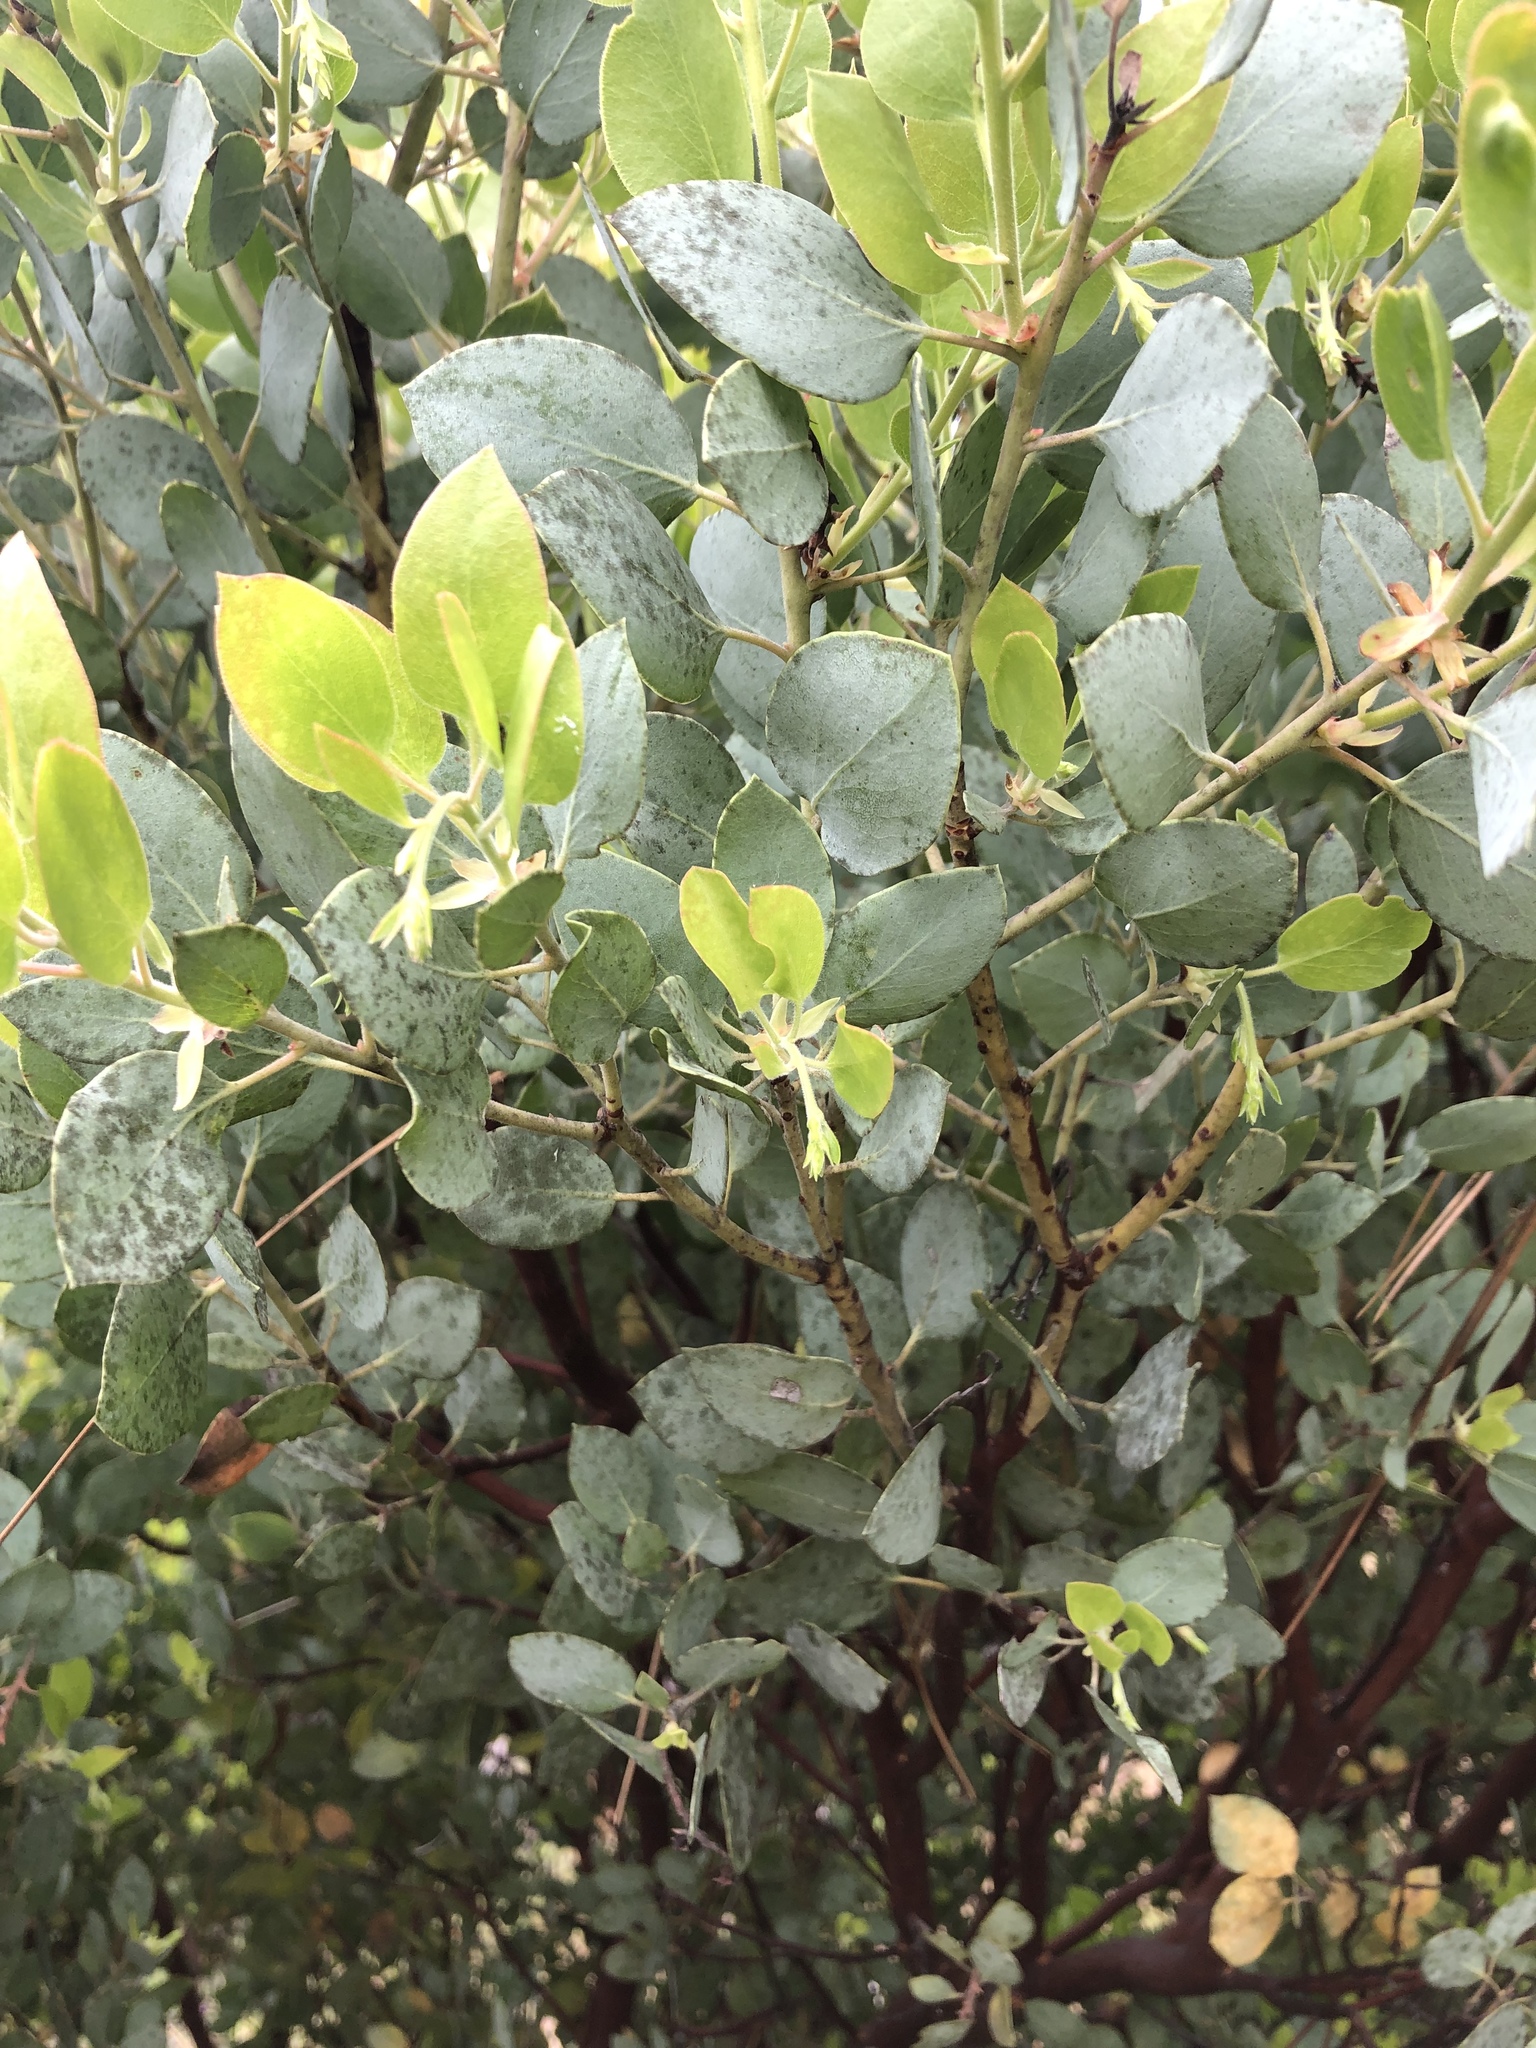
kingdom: Plantae
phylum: Tracheophyta
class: Magnoliopsida
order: Ericales
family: Ericaceae
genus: Arctostaphylos
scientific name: Arctostaphylos glauca
